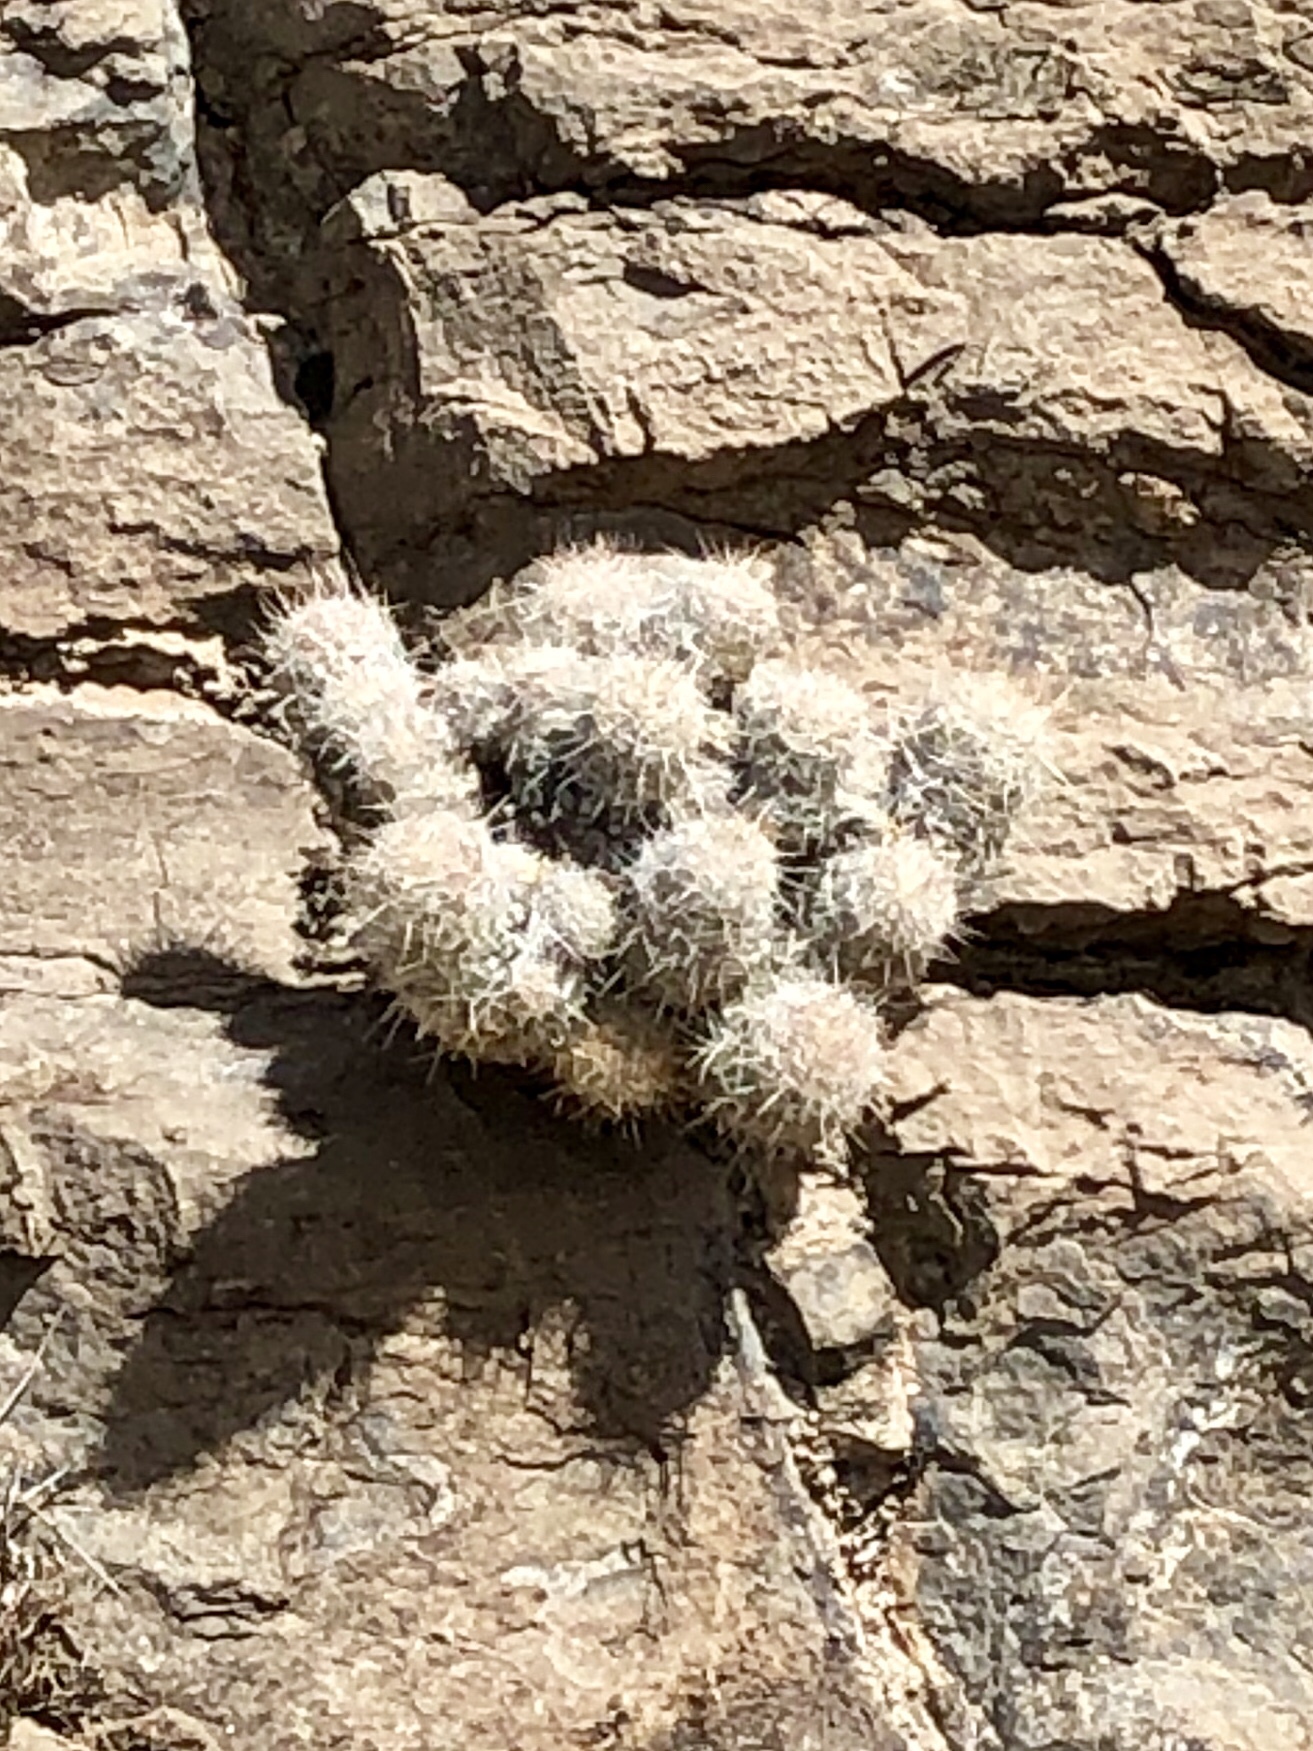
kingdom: Plantae
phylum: Tracheophyta
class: Magnoliopsida
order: Caryophyllales
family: Cactaceae
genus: Pelecyphora
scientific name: Pelecyphora tuberculosa
